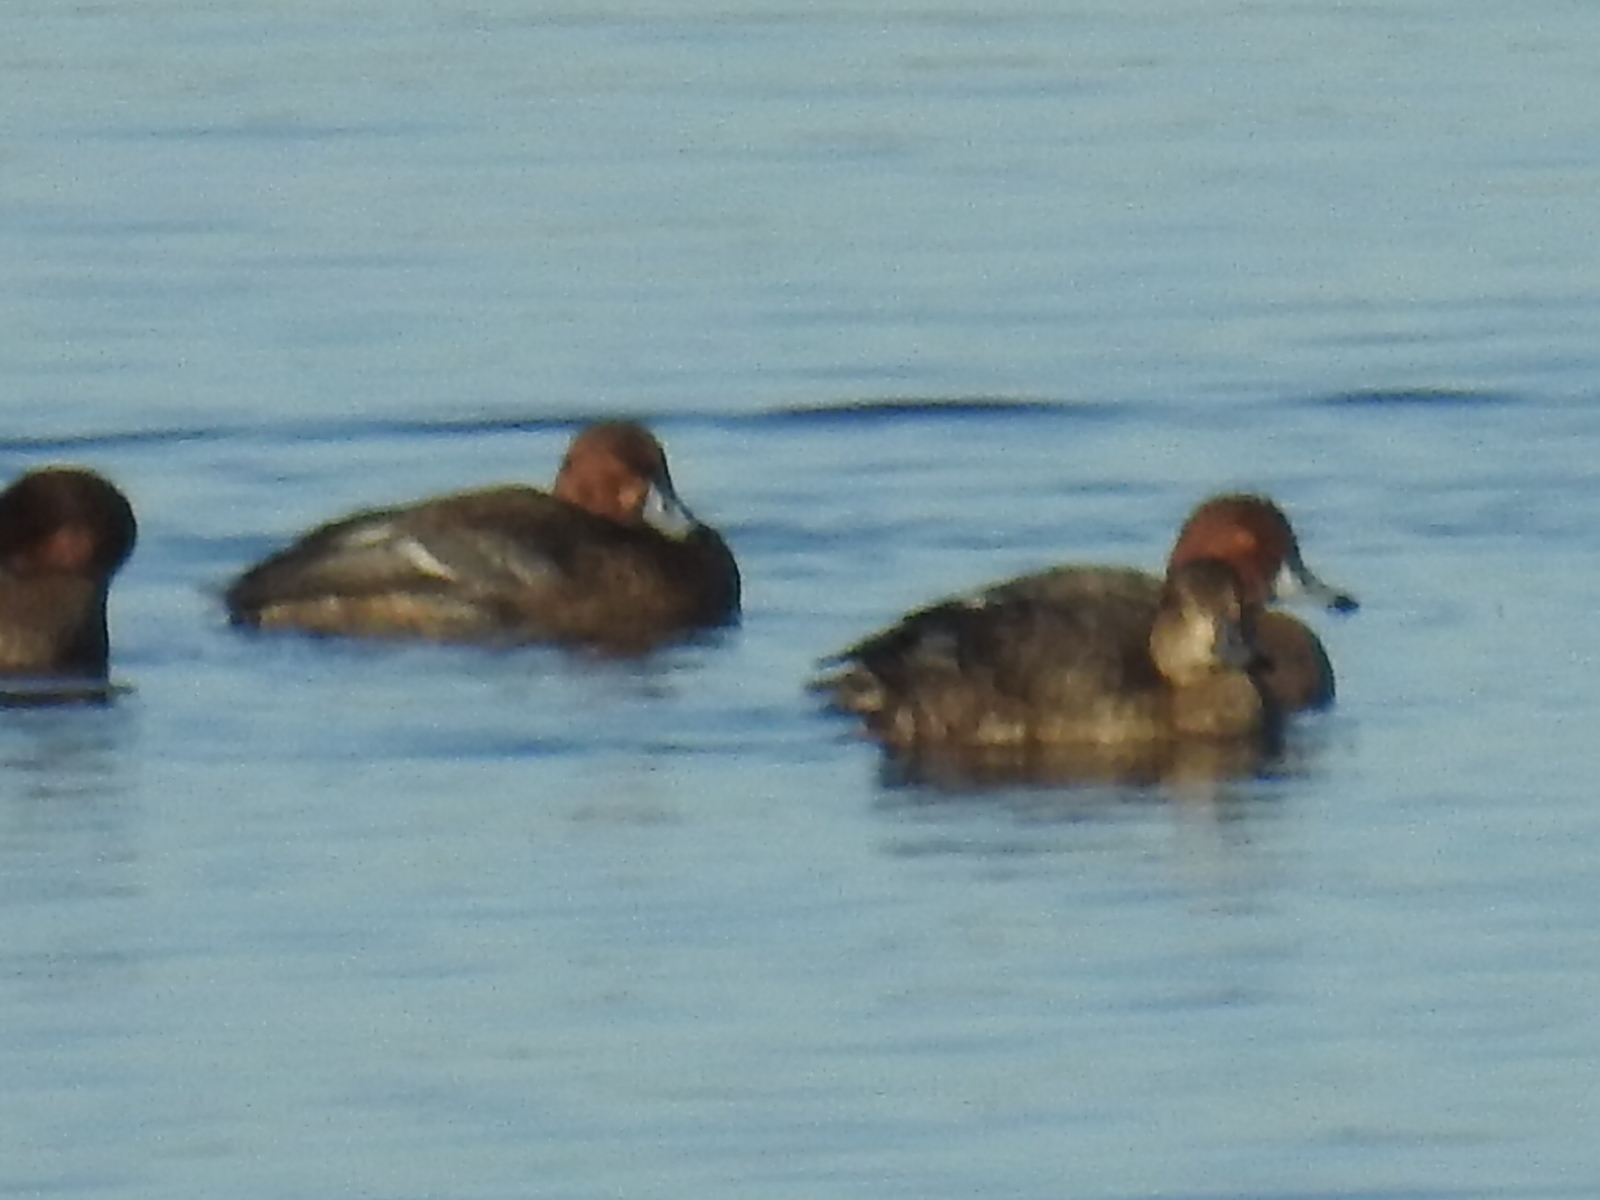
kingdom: Animalia
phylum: Chordata
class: Aves
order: Anseriformes
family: Anatidae
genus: Aythya
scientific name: Aythya americana
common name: Redhead
